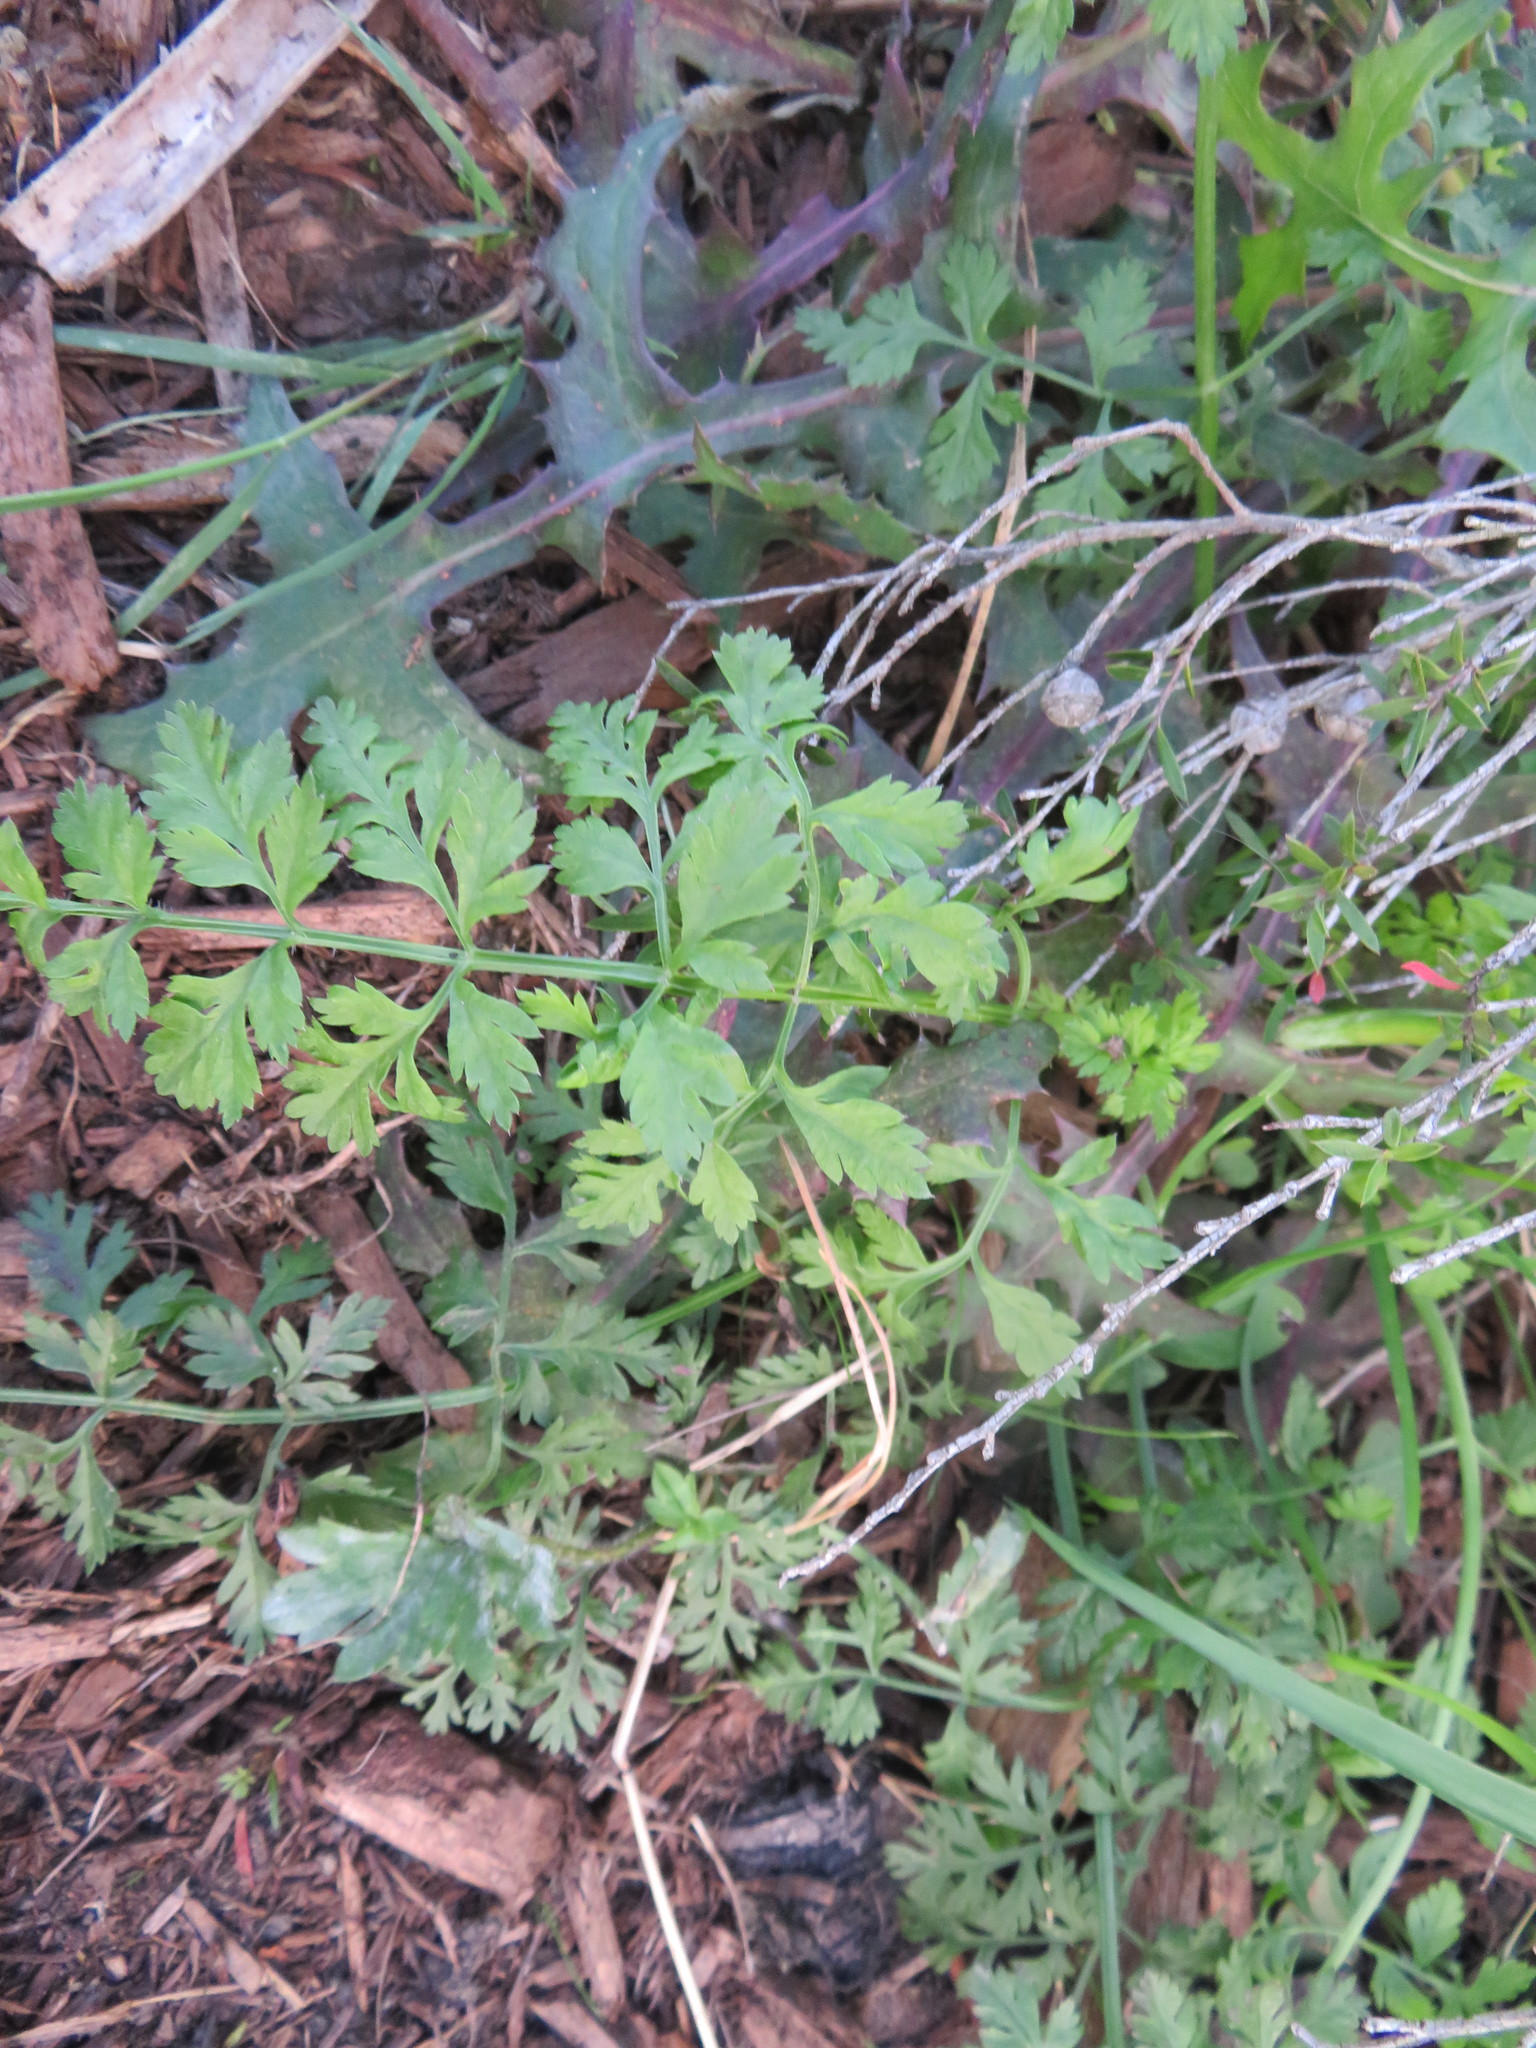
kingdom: Plantae
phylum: Tracheophyta
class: Magnoliopsida
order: Apiales
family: Apiaceae
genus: Daucus
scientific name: Daucus carota
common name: Wild carrot
